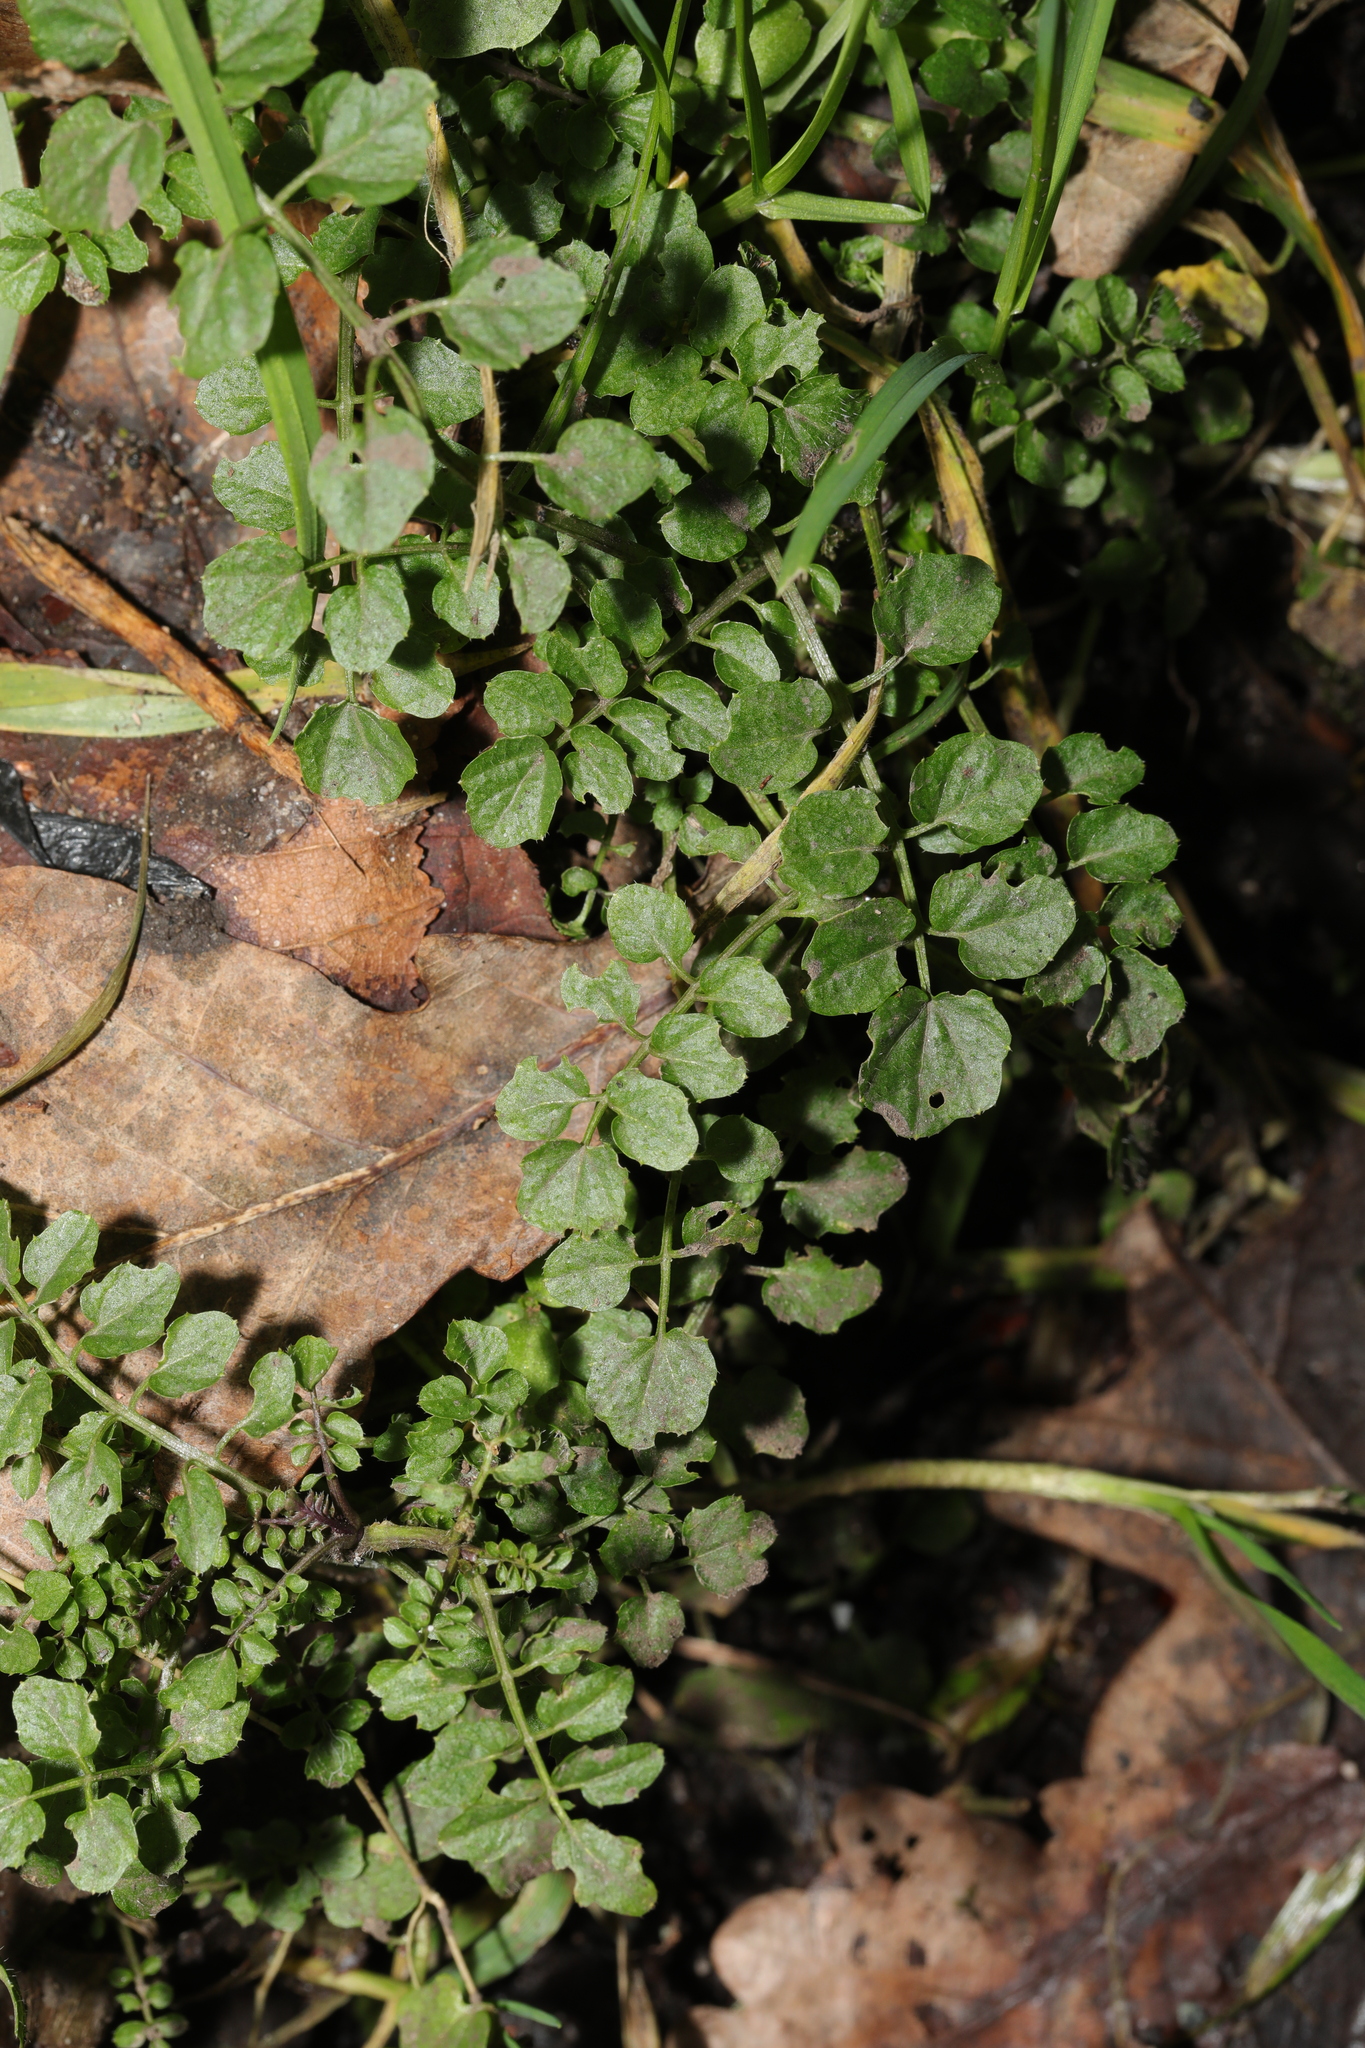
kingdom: Plantae
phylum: Tracheophyta
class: Magnoliopsida
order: Brassicales
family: Brassicaceae
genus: Cardamine
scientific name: Cardamine flexuosa
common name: Woodland bittercress
